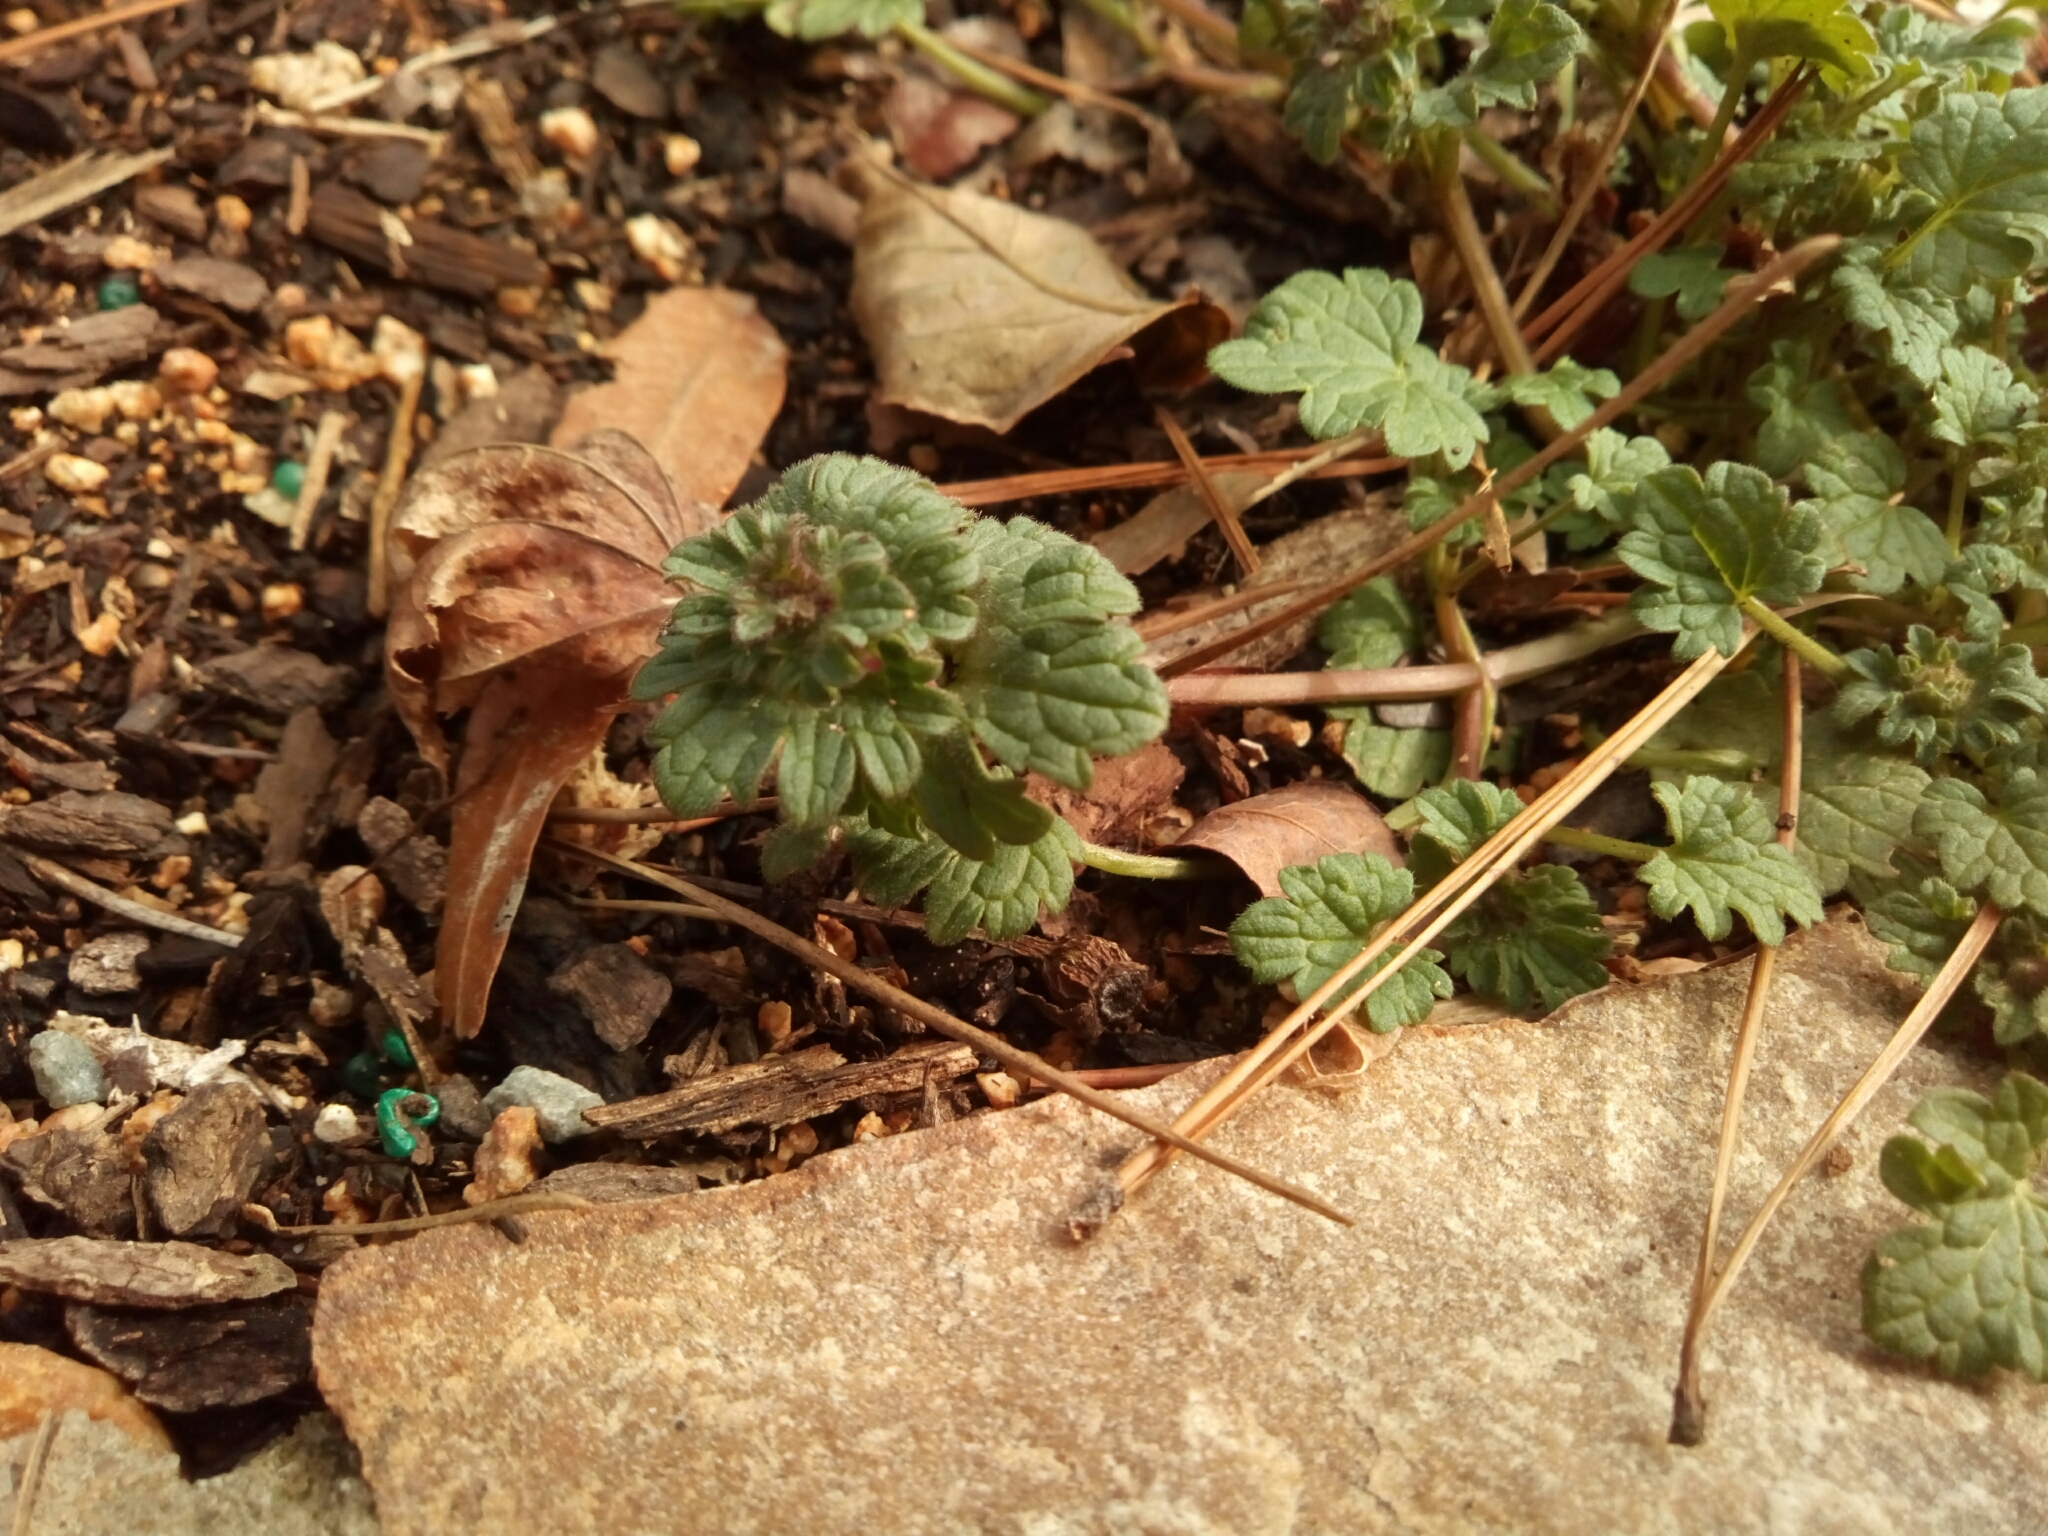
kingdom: Plantae
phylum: Tracheophyta
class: Magnoliopsida
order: Lamiales
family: Lamiaceae
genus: Lamium
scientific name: Lamium amplexicaule
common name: Henbit dead-nettle
